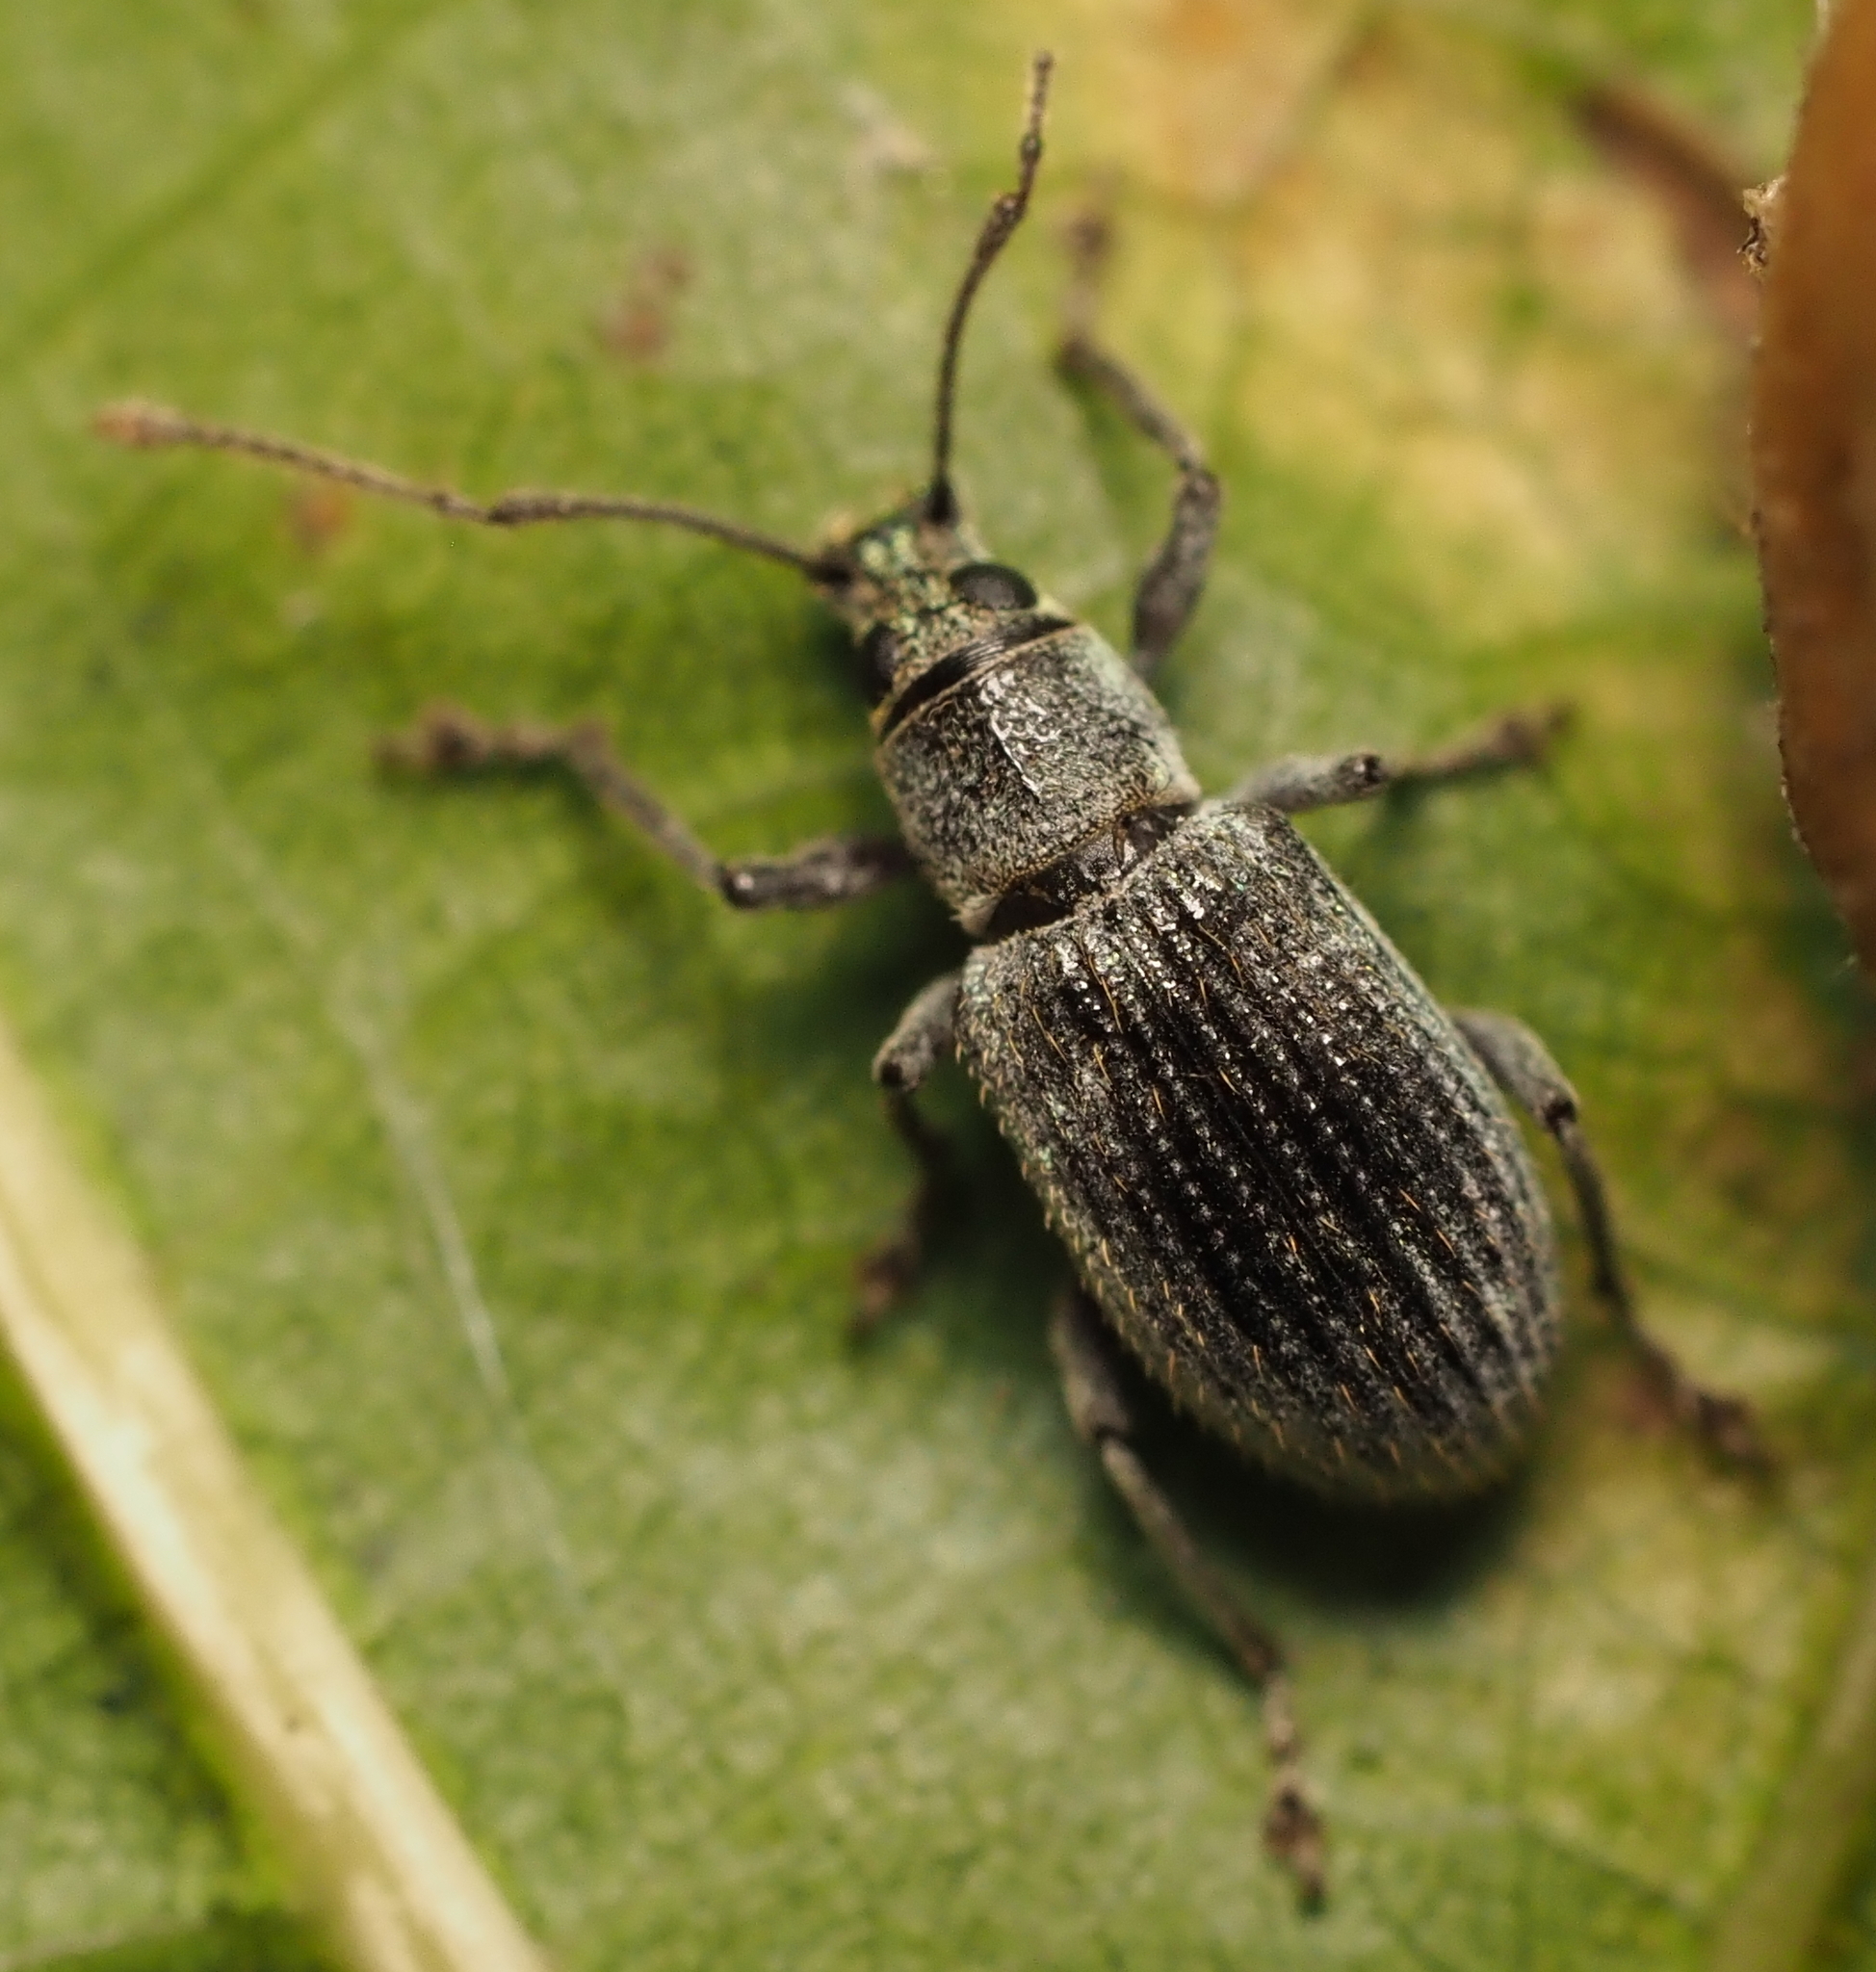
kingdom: Animalia
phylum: Arthropoda
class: Insecta
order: Coleoptera
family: Curculionidae
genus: Cyrtepistomus
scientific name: Cyrtepistomus castaneus
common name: Weevil
